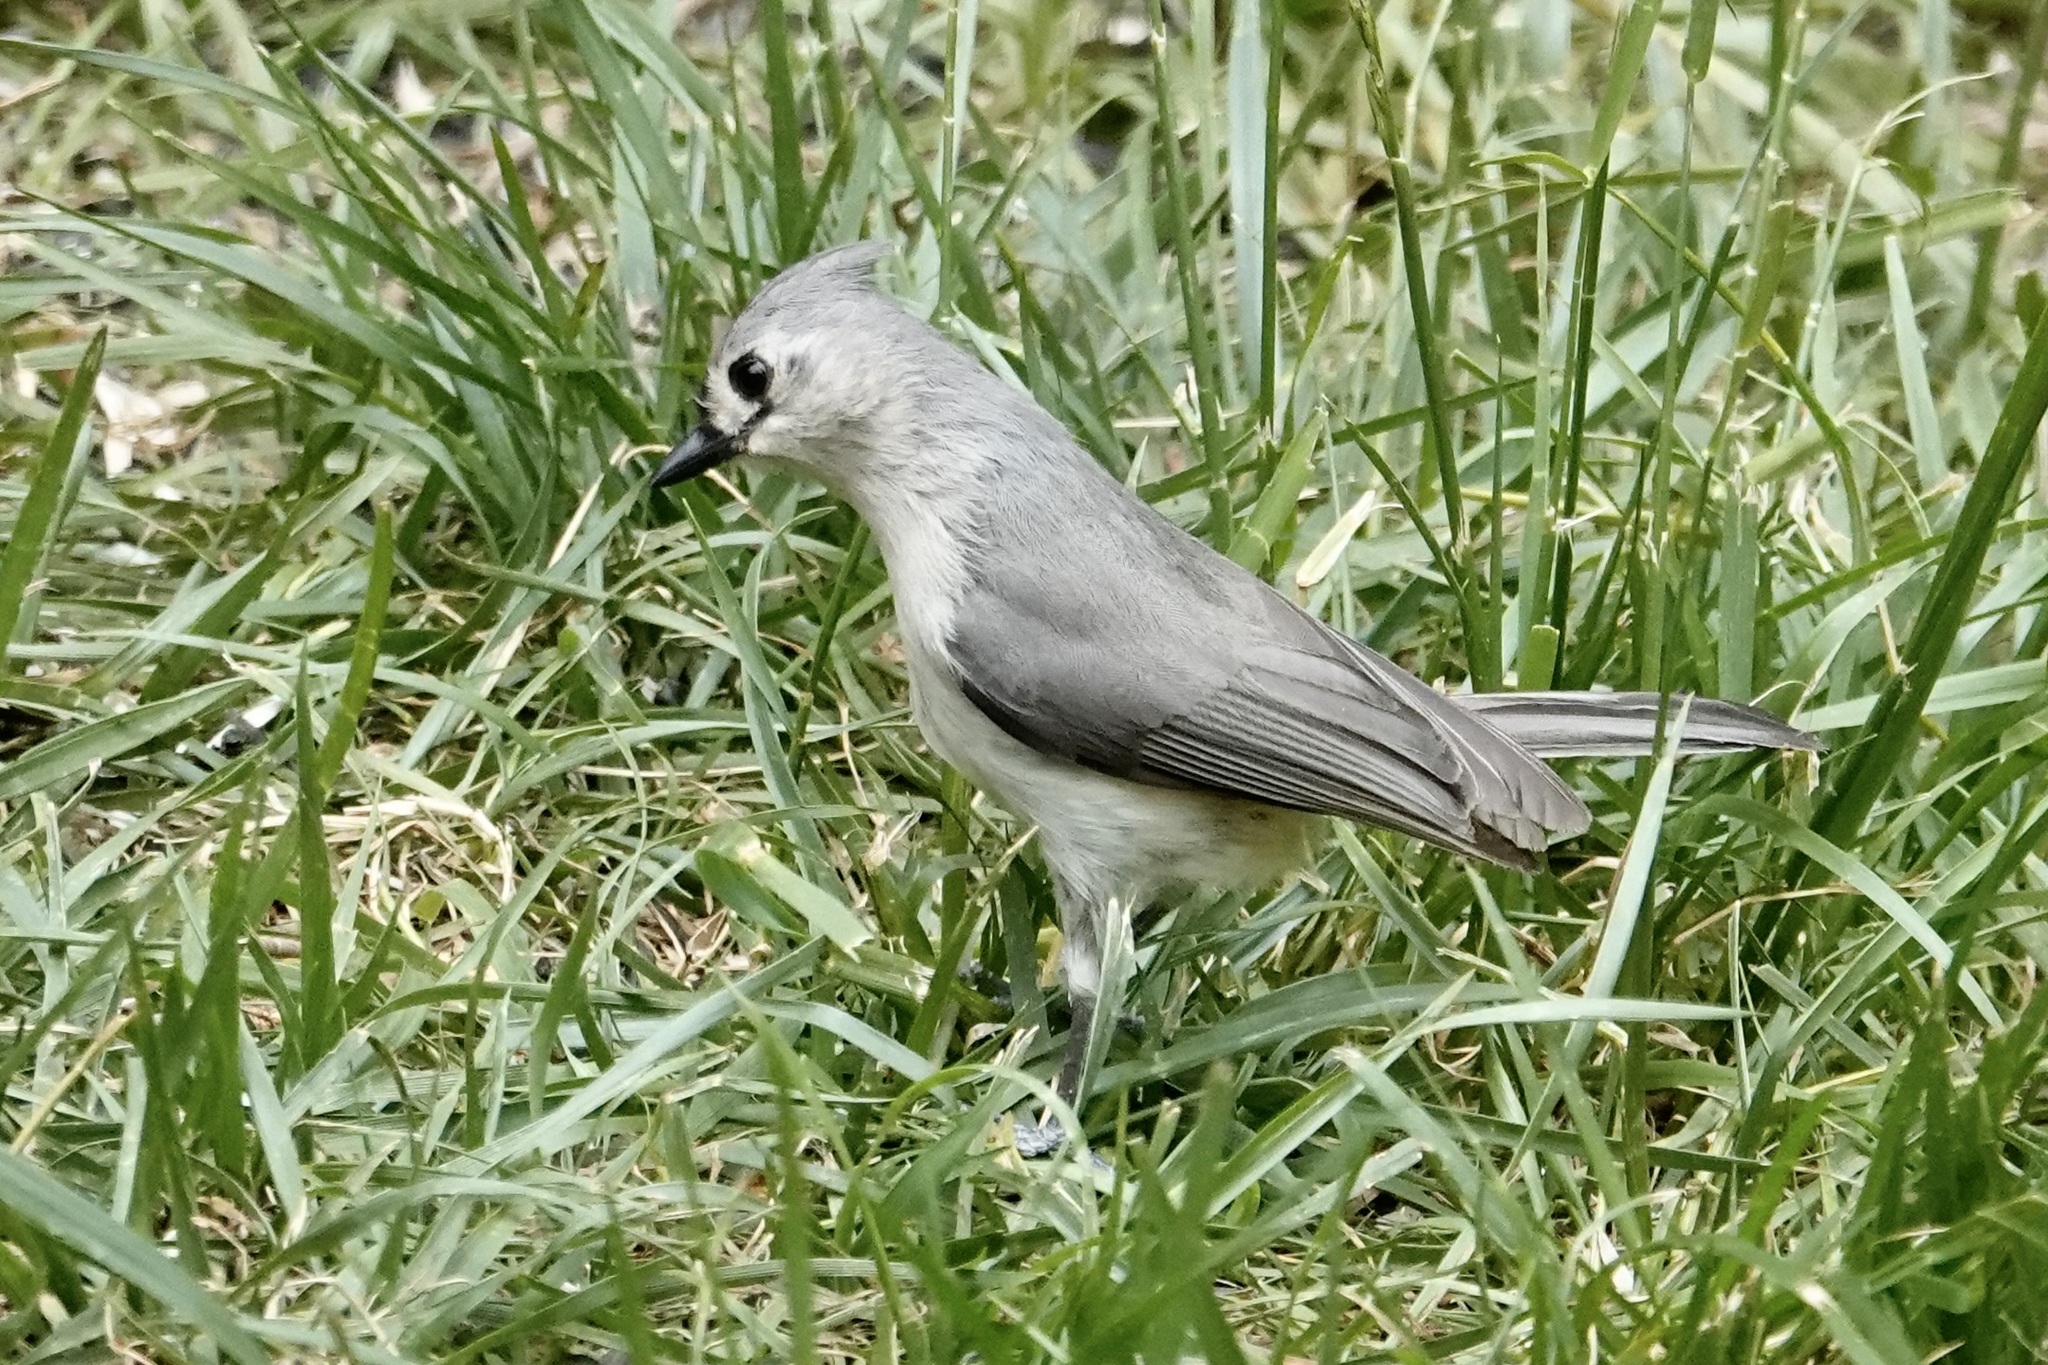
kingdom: Animalia
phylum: Chordata
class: Aves
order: Passeriformes
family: Paridae
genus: Baeolophus
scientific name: Baeolophus bicolor
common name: Tufted titmouse
